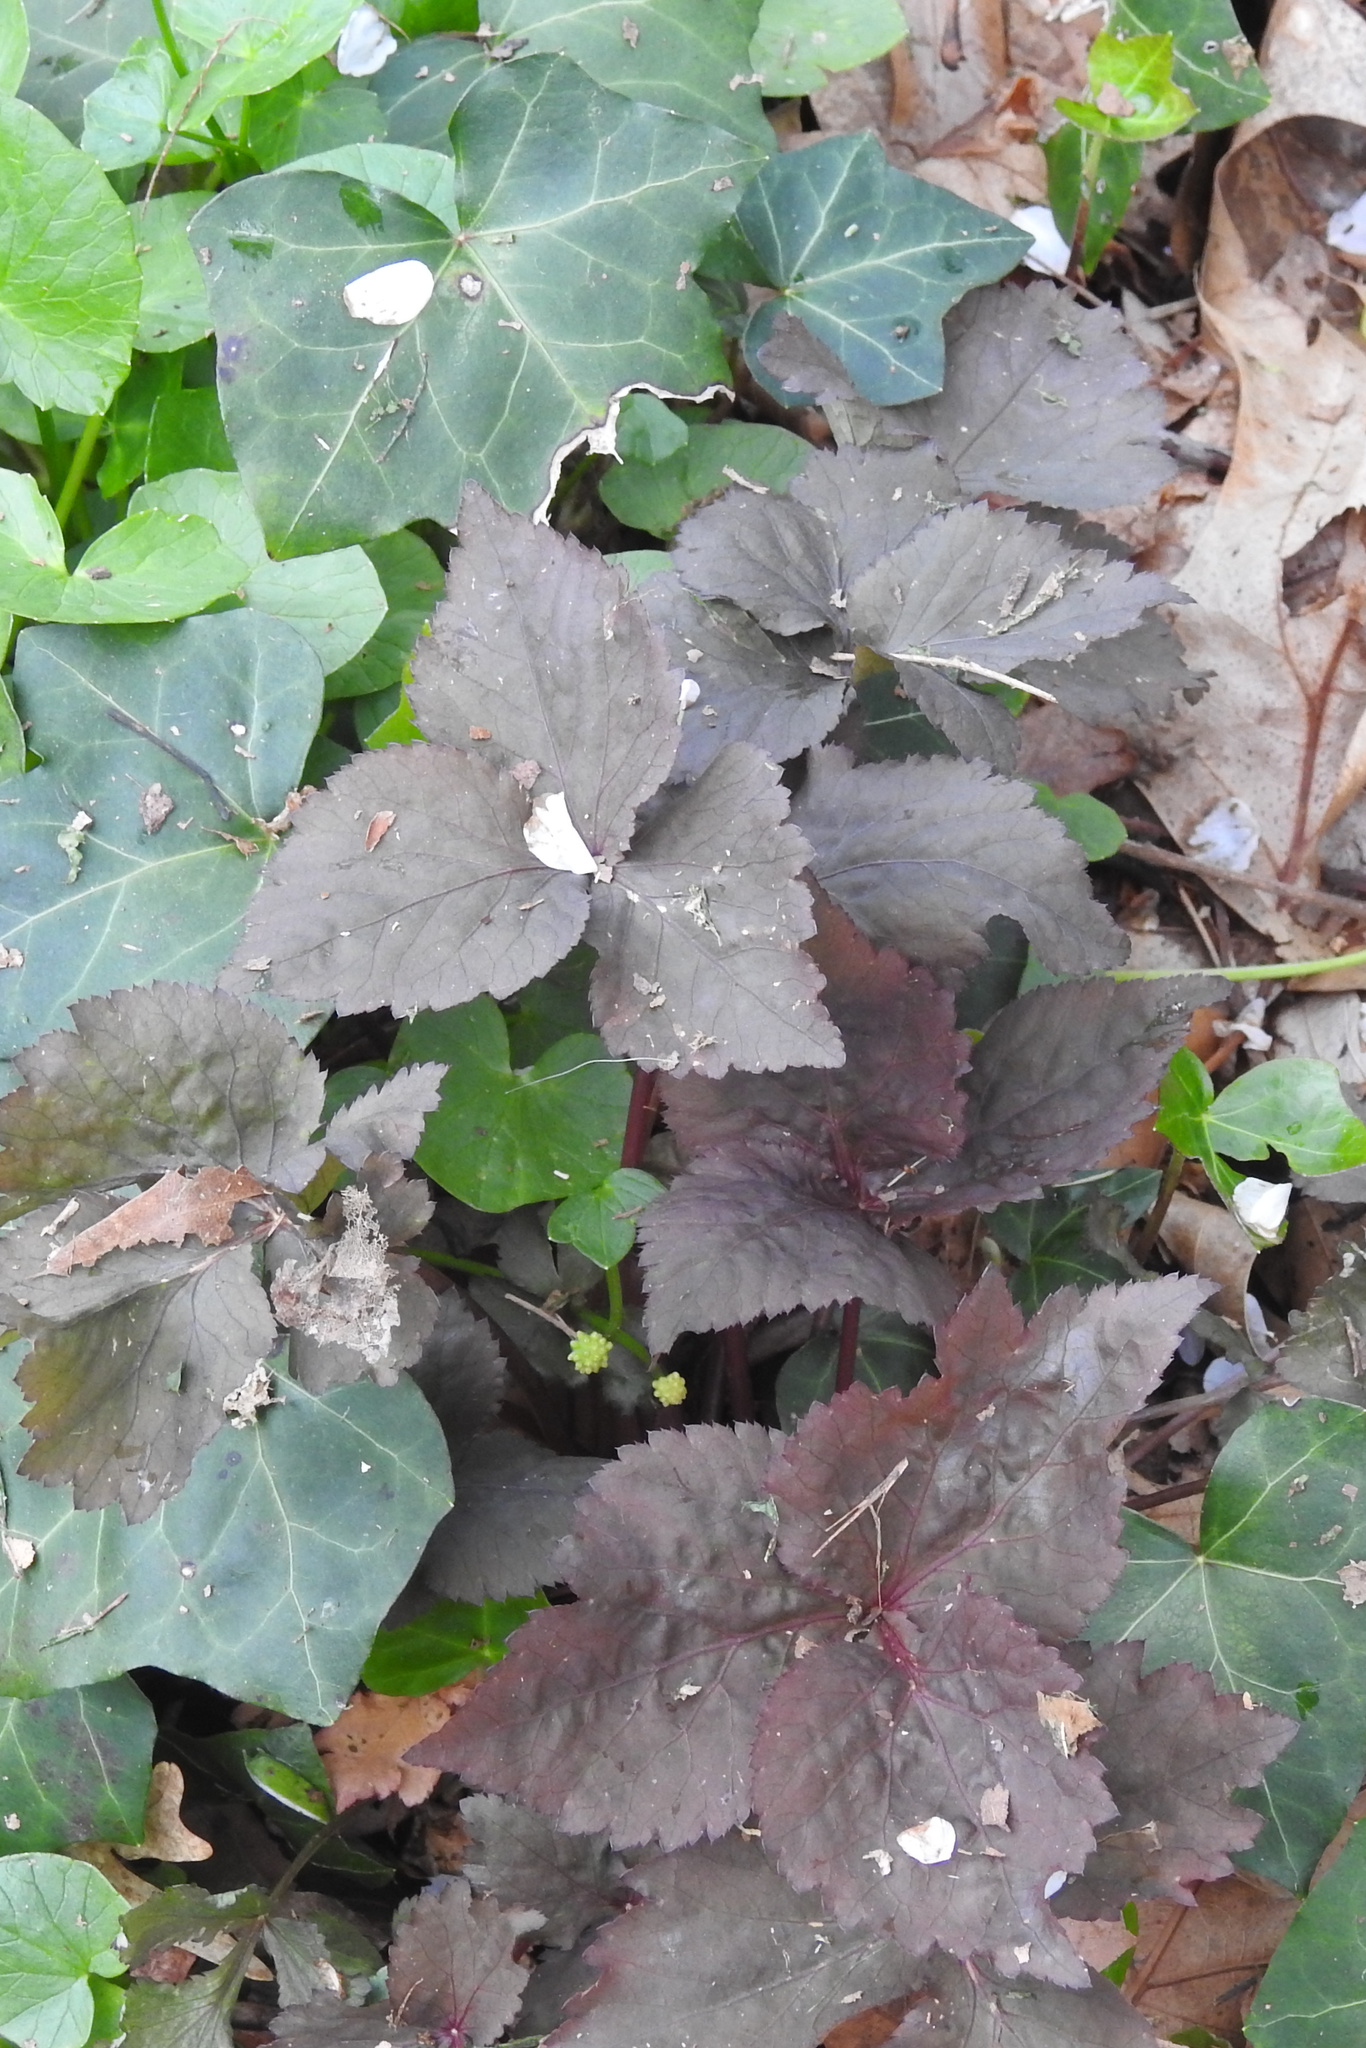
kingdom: Plantae
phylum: Tracheophyta
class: Magnoliopsida
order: Apiales
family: Apiaceae
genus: Cryptotaenia
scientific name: Cryptotaenia japonica
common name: Japanese cryptotaenia
